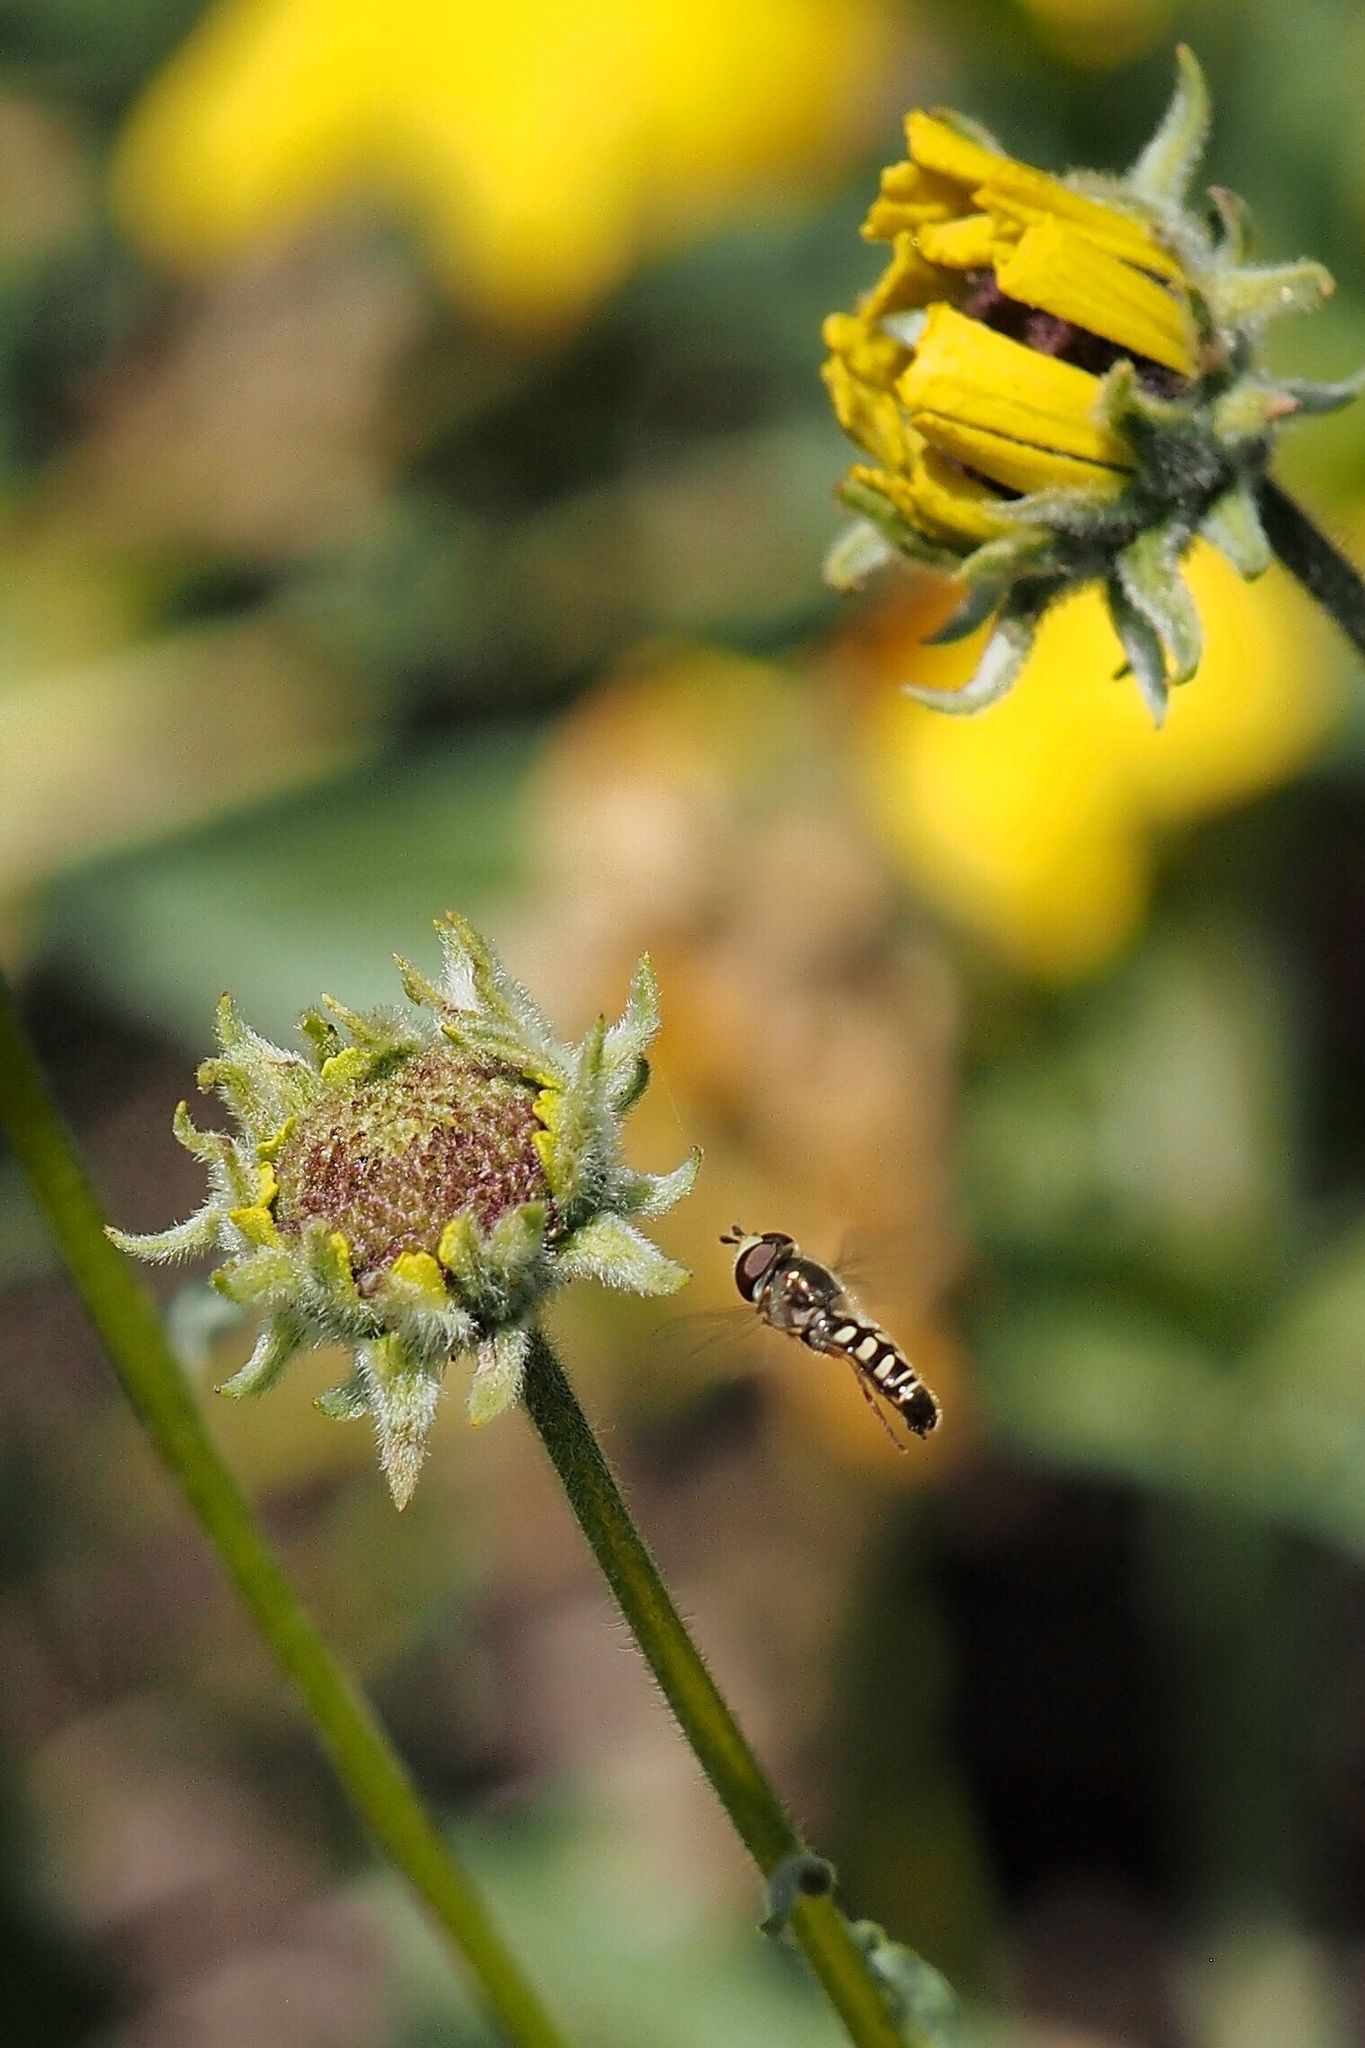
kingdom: Animalia
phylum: Arthropoda
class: Insecta
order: Diptera
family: Syrphidae
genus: Eupeodes
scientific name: Eupeodes volucris
